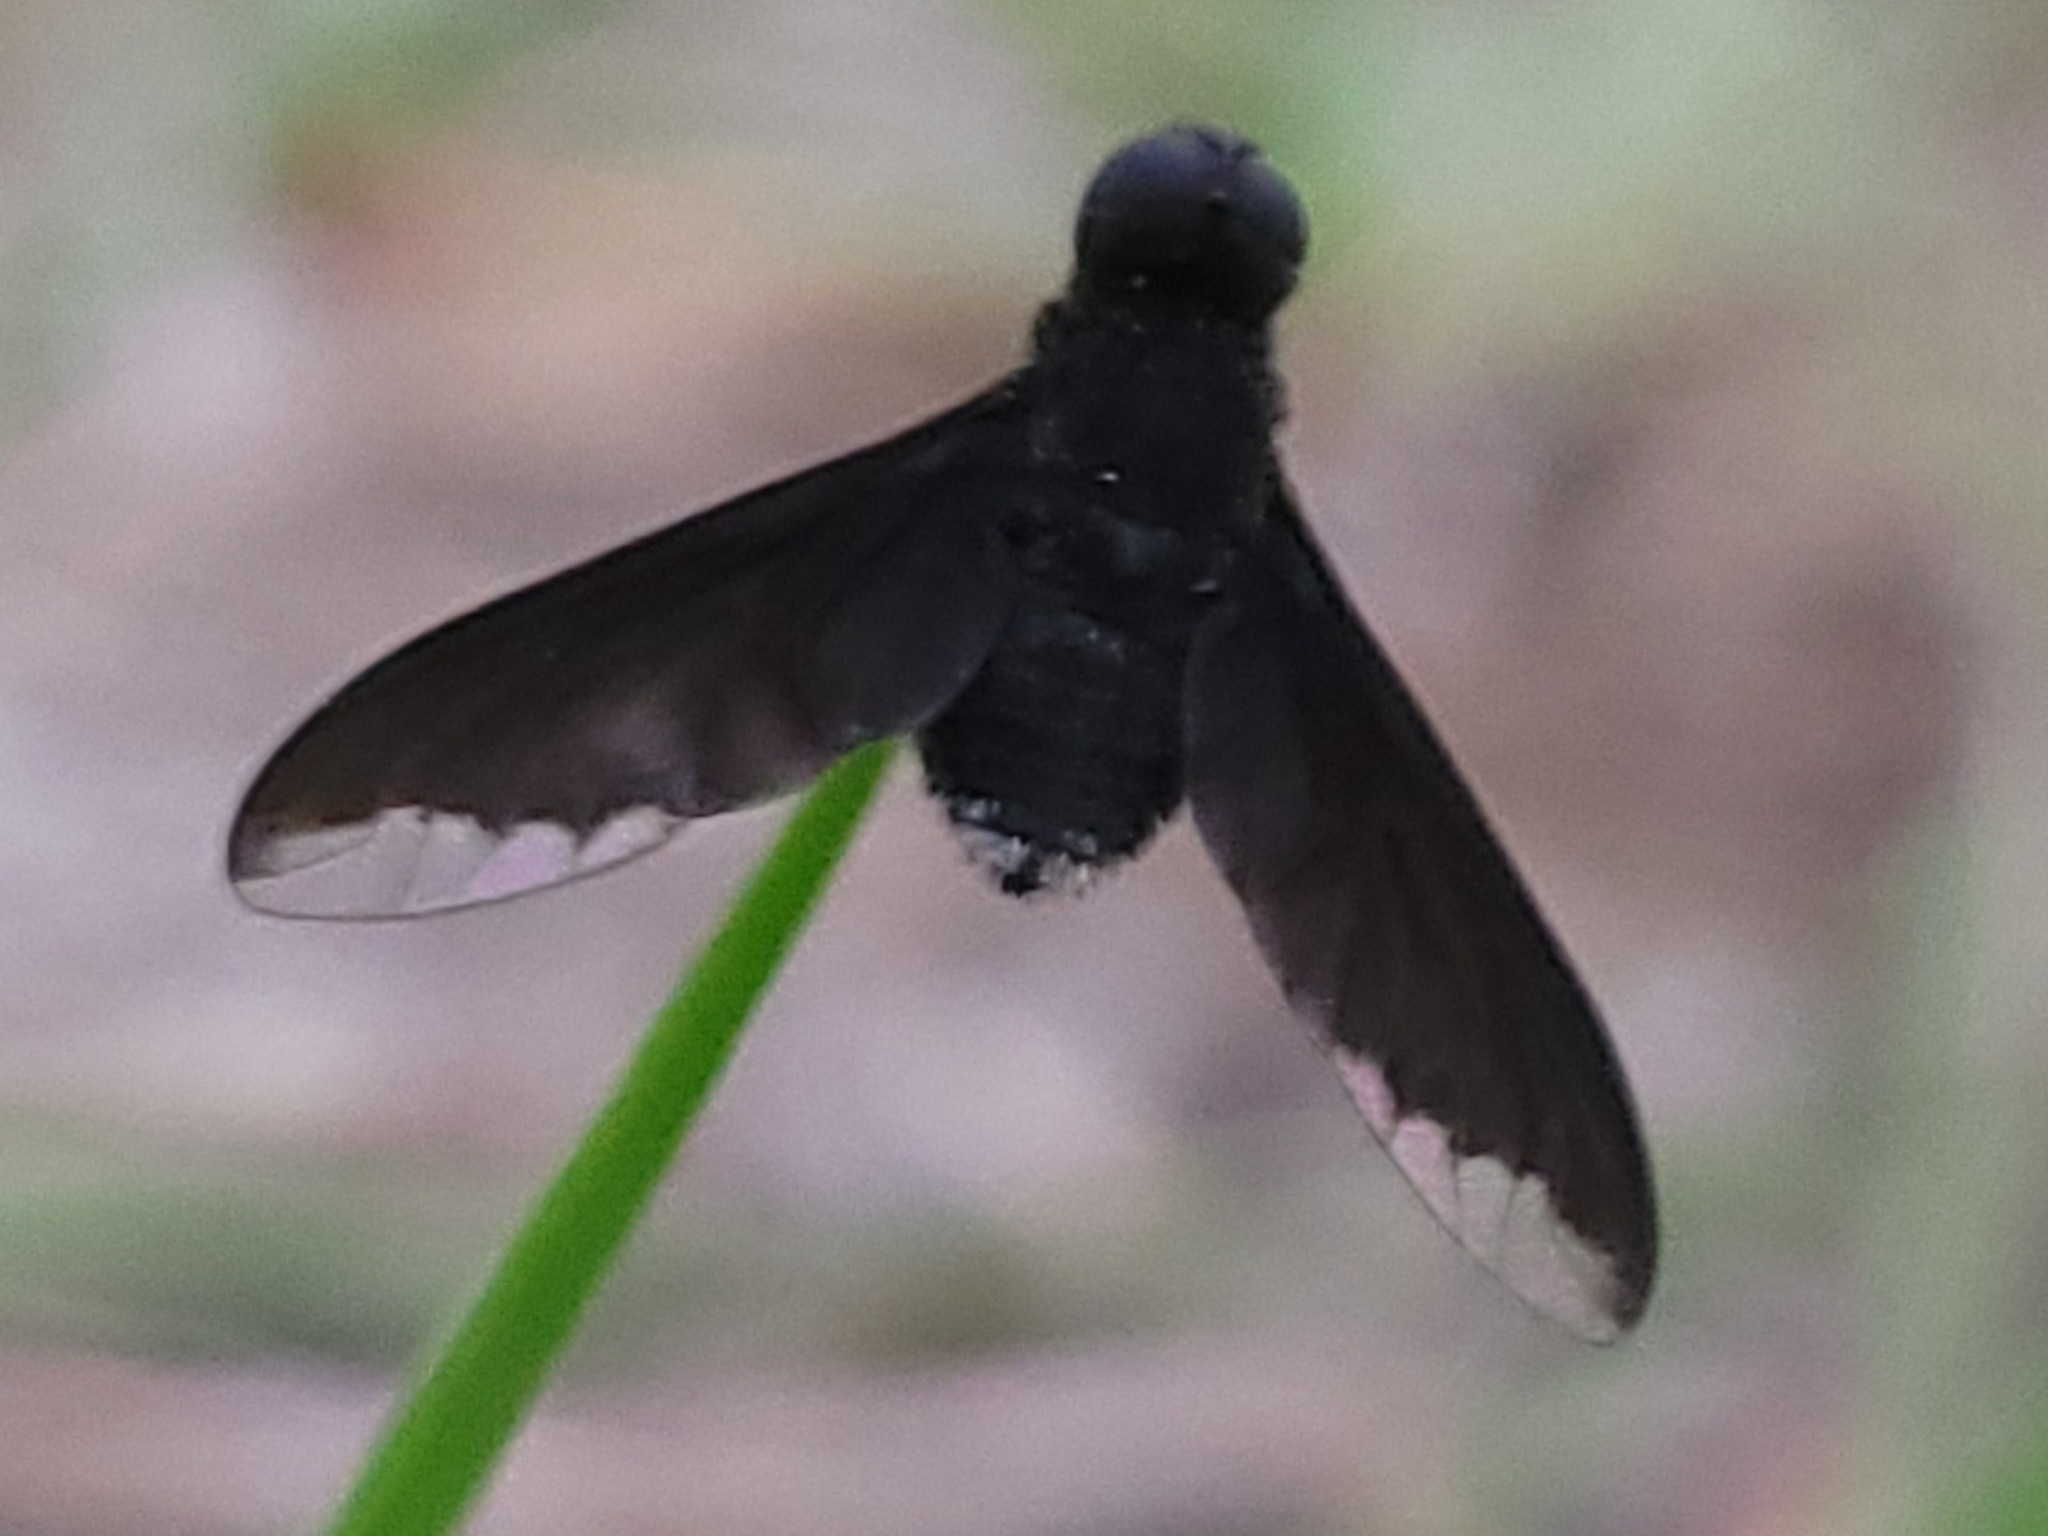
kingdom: Animalia
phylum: Arthropoda
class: Insecta
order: Diptera
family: Bombyliidae
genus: Anthrax
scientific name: Anthrax analis
